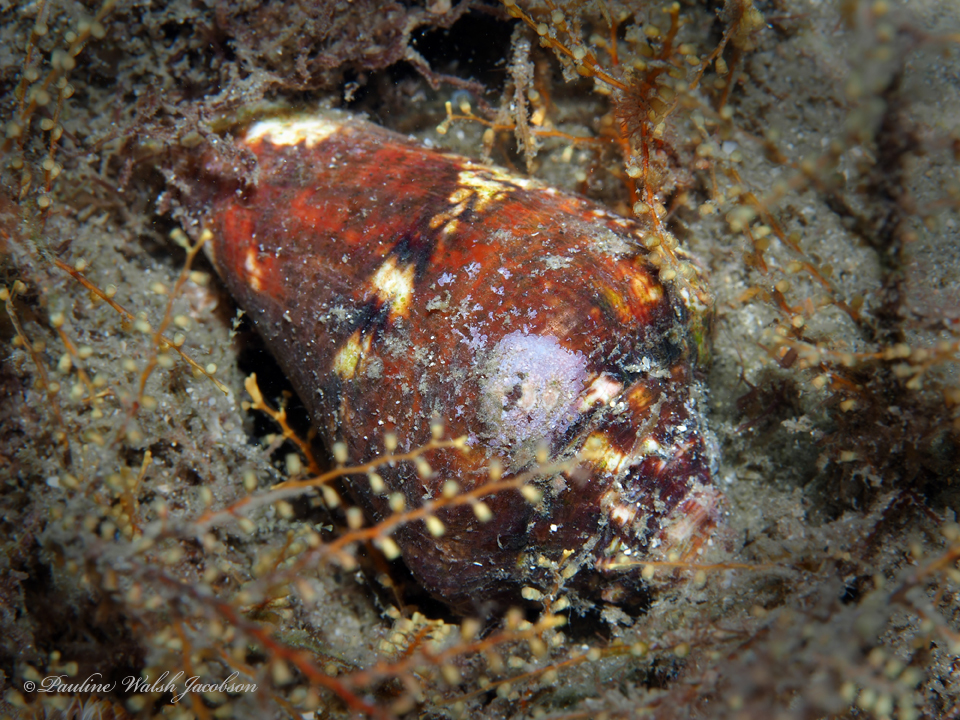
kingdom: Animalia
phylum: Mollusca
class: Gastropoda
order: Littorinimorpha
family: Strombidae
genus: Lobatus
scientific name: Lobatus raninus
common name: Hawk-wing conch
